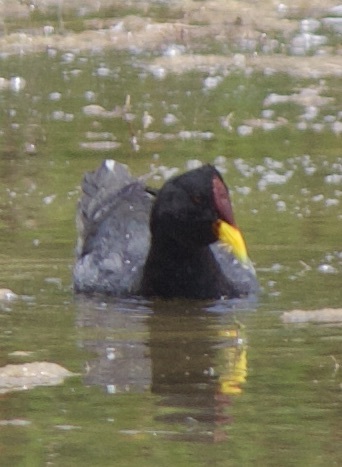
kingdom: Animalia
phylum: Chordata
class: Aves
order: Gruiformes
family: Rallidae
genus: Fulica
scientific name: Fulica rufifrons
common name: Red-fronted coot
